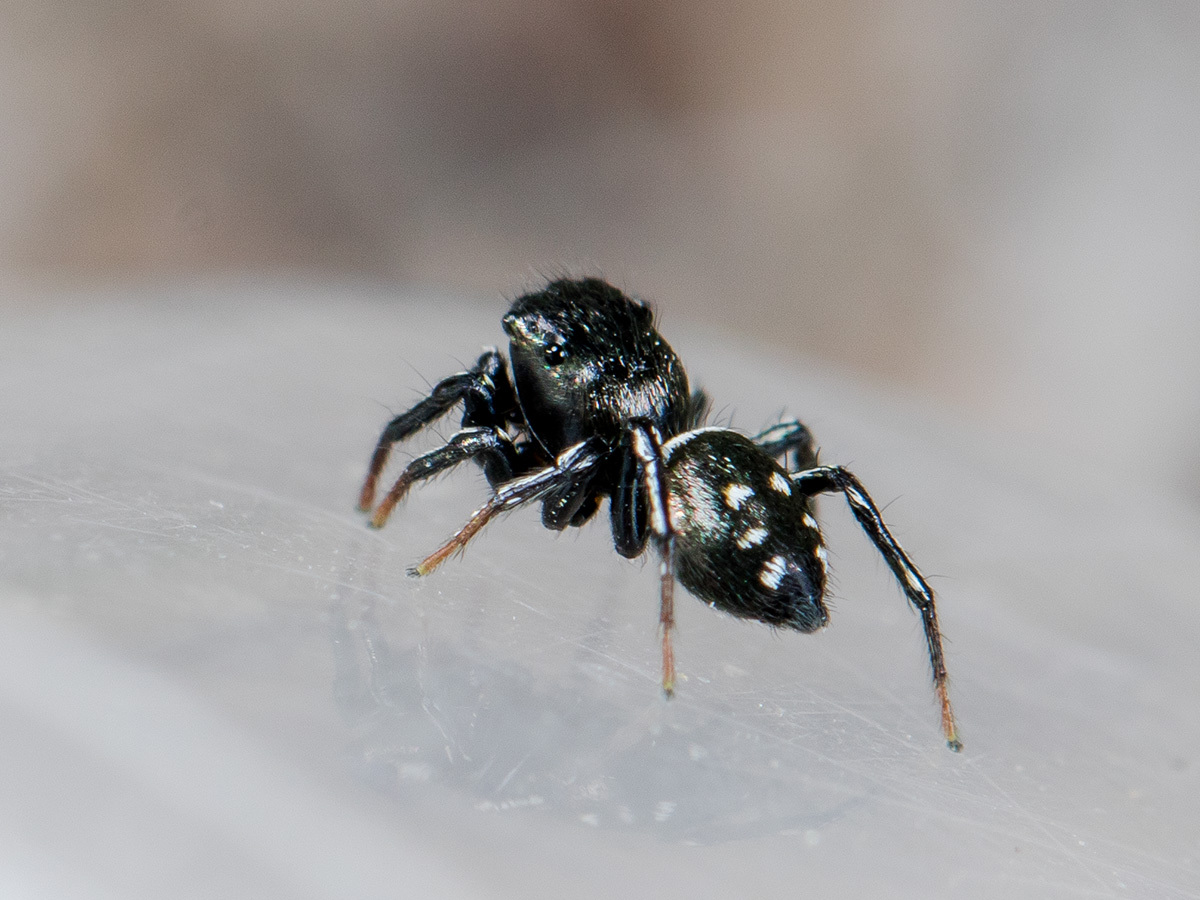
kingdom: Animalia
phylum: Arthropoda
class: Arachnida
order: Araneae
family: Salticidae
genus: Heliophanus
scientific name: Heliophanus curvidens
